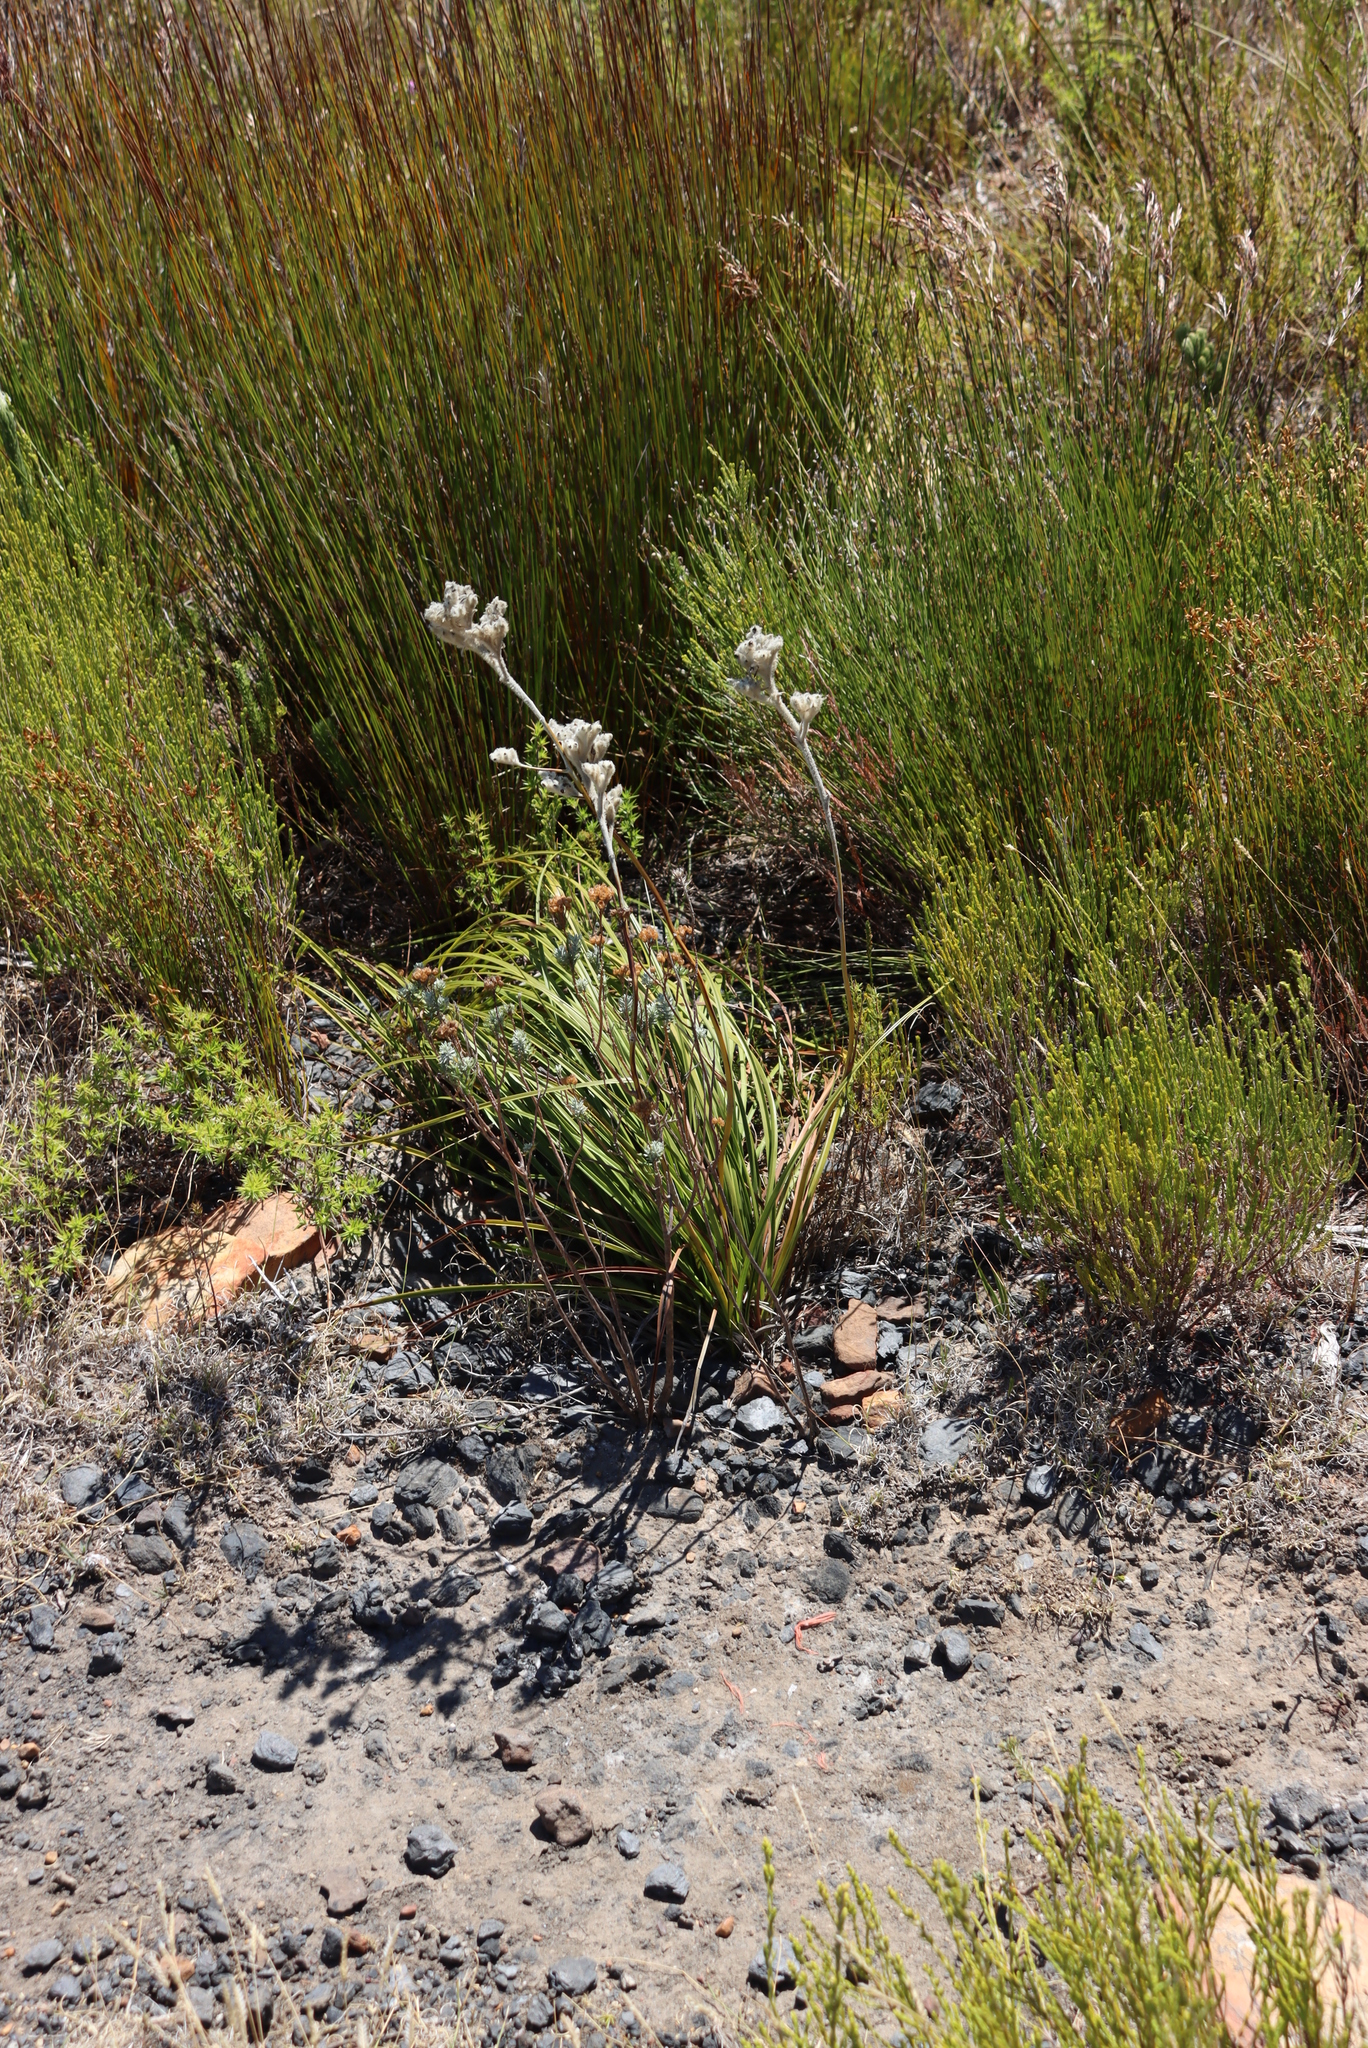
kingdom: Plantae
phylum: Tracheophyta
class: Liliopsida
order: Asparagales
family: Lanariaceae
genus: Lanaria
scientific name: Lanaria lanata
